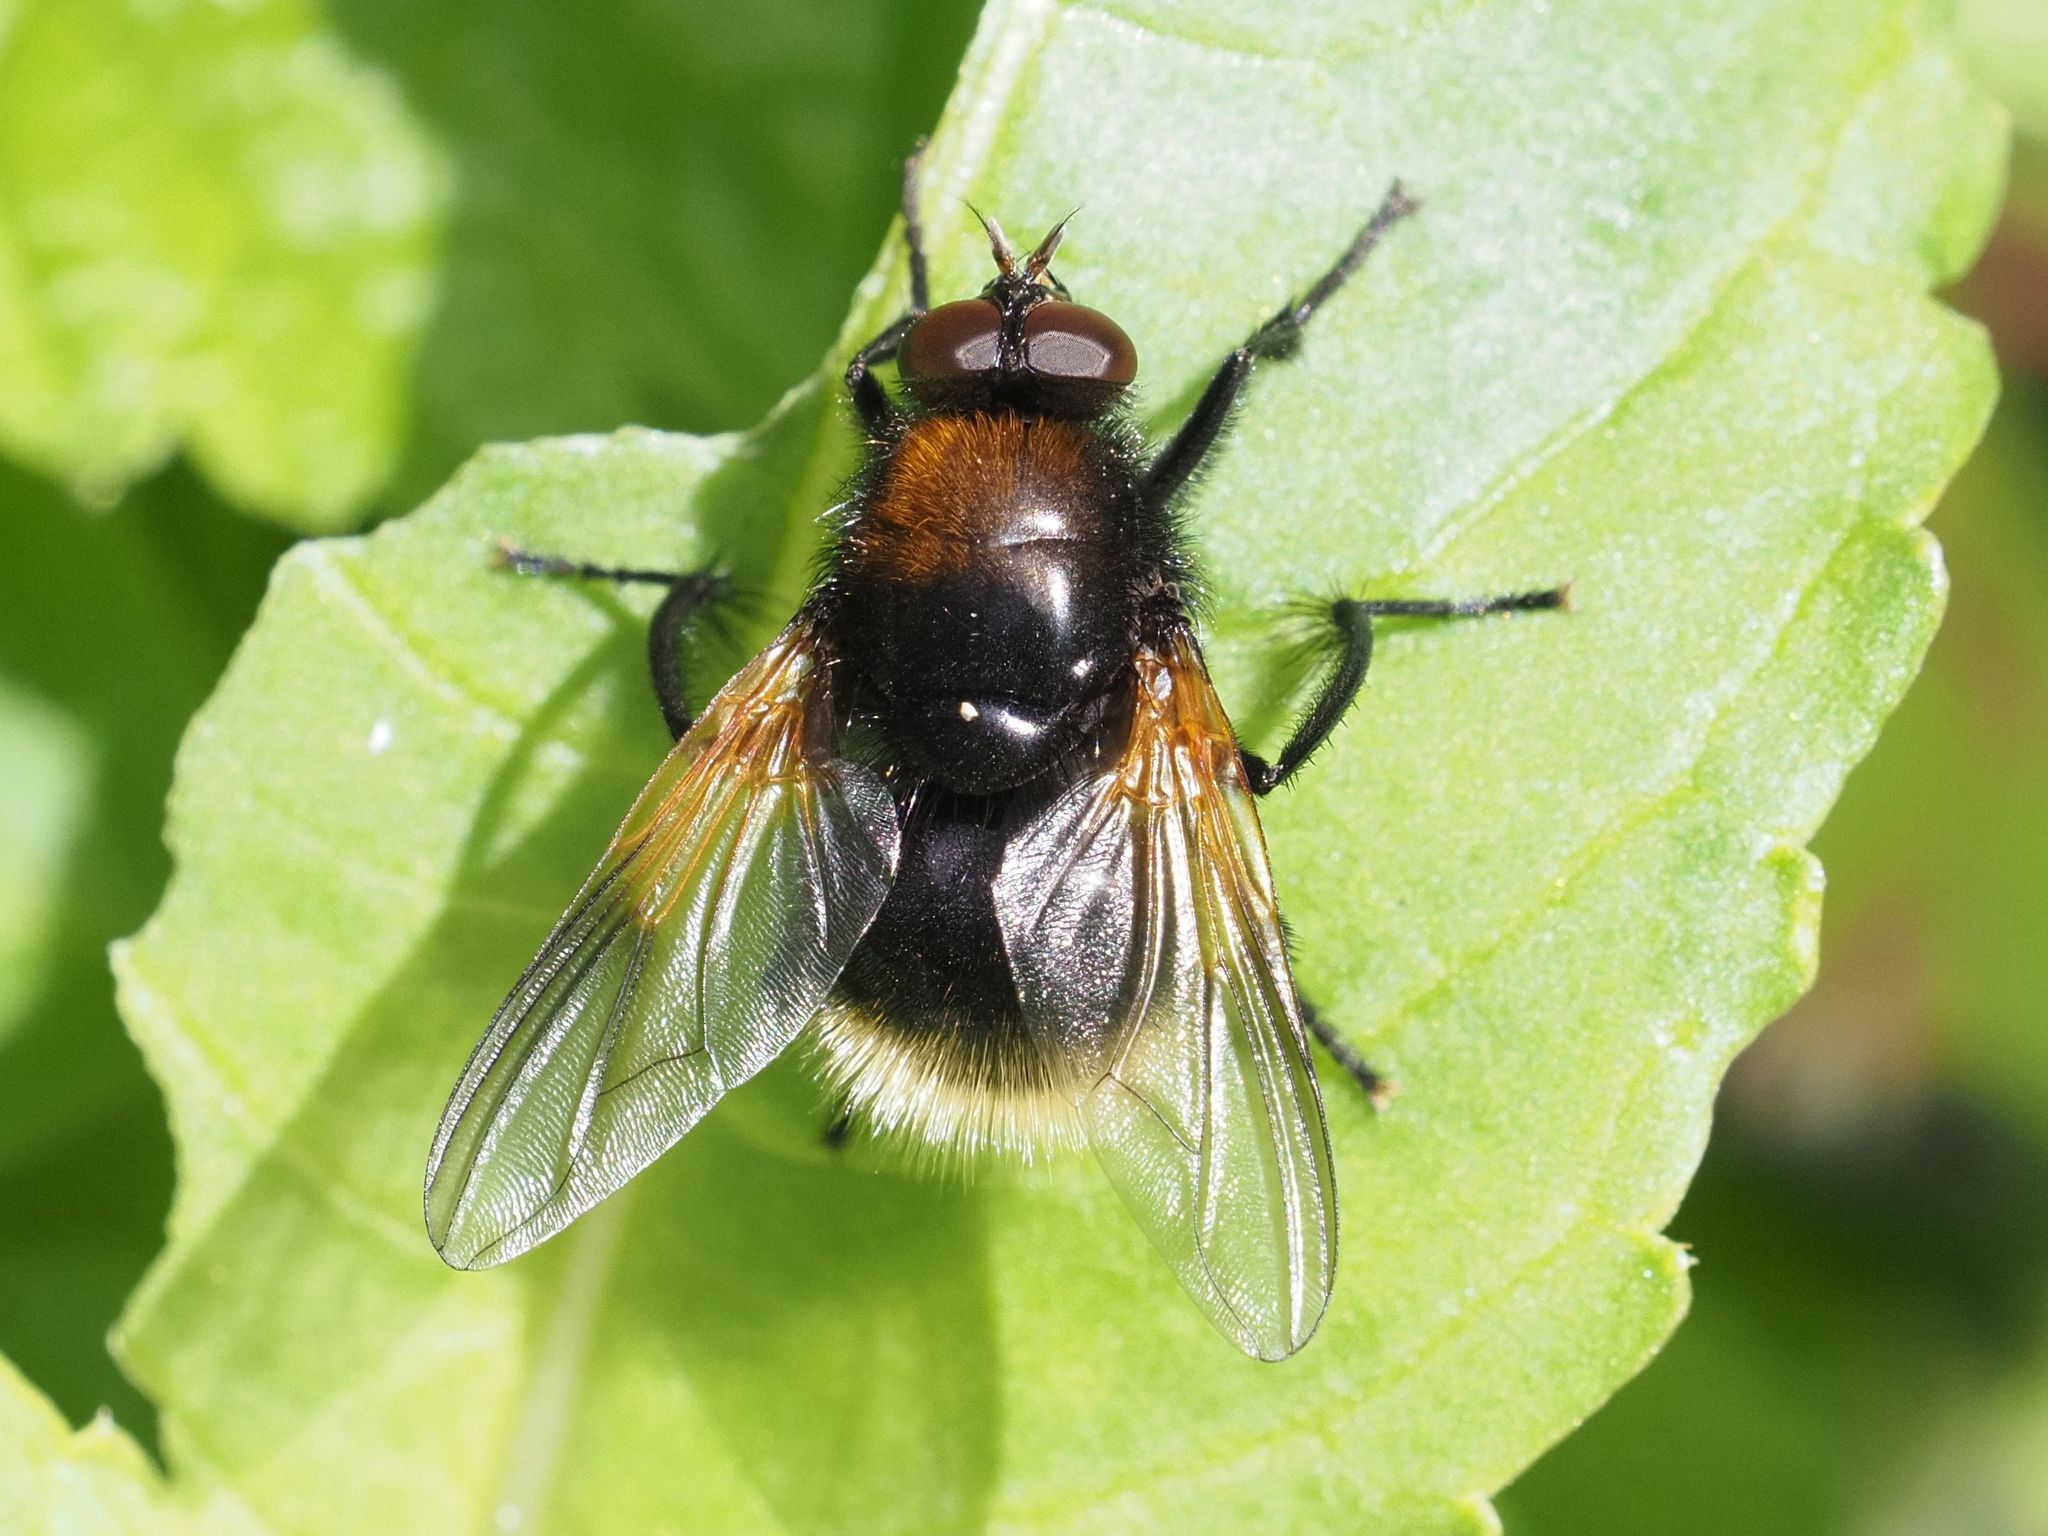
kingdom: Animalia
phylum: Arthropoda
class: Insecta
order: Diptera
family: Muscidae
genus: Mesembrina
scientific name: Mesembrina mystacea
